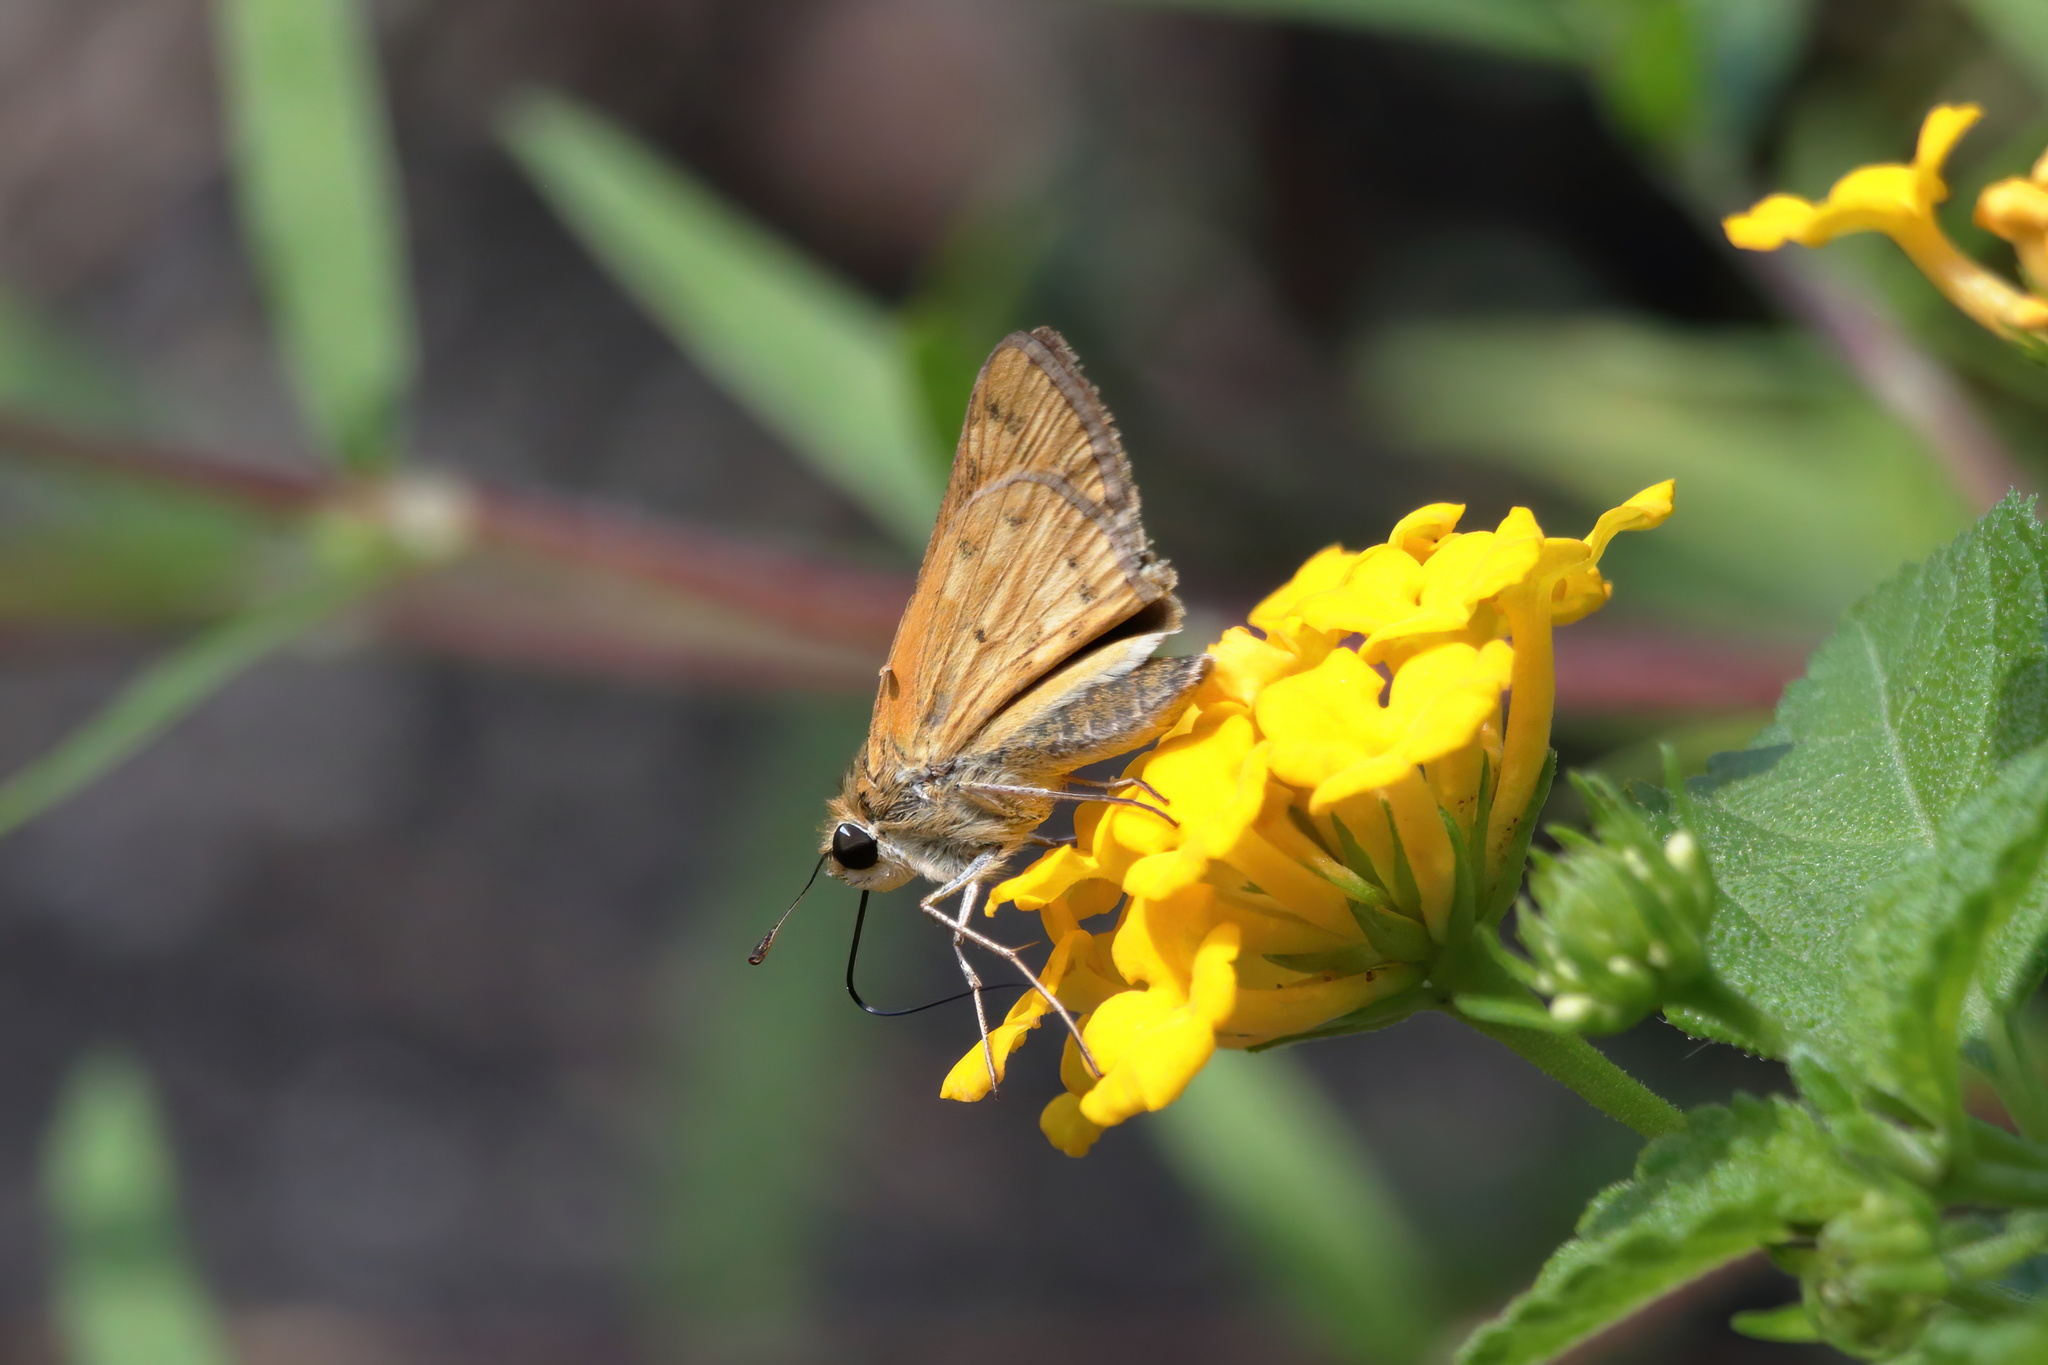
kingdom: Animalia
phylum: Arthropoda
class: Insecta
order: Lepidoptera
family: Hesperiidae
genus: Hylephila
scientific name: Hylephila phyleus
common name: Fiery skipper
